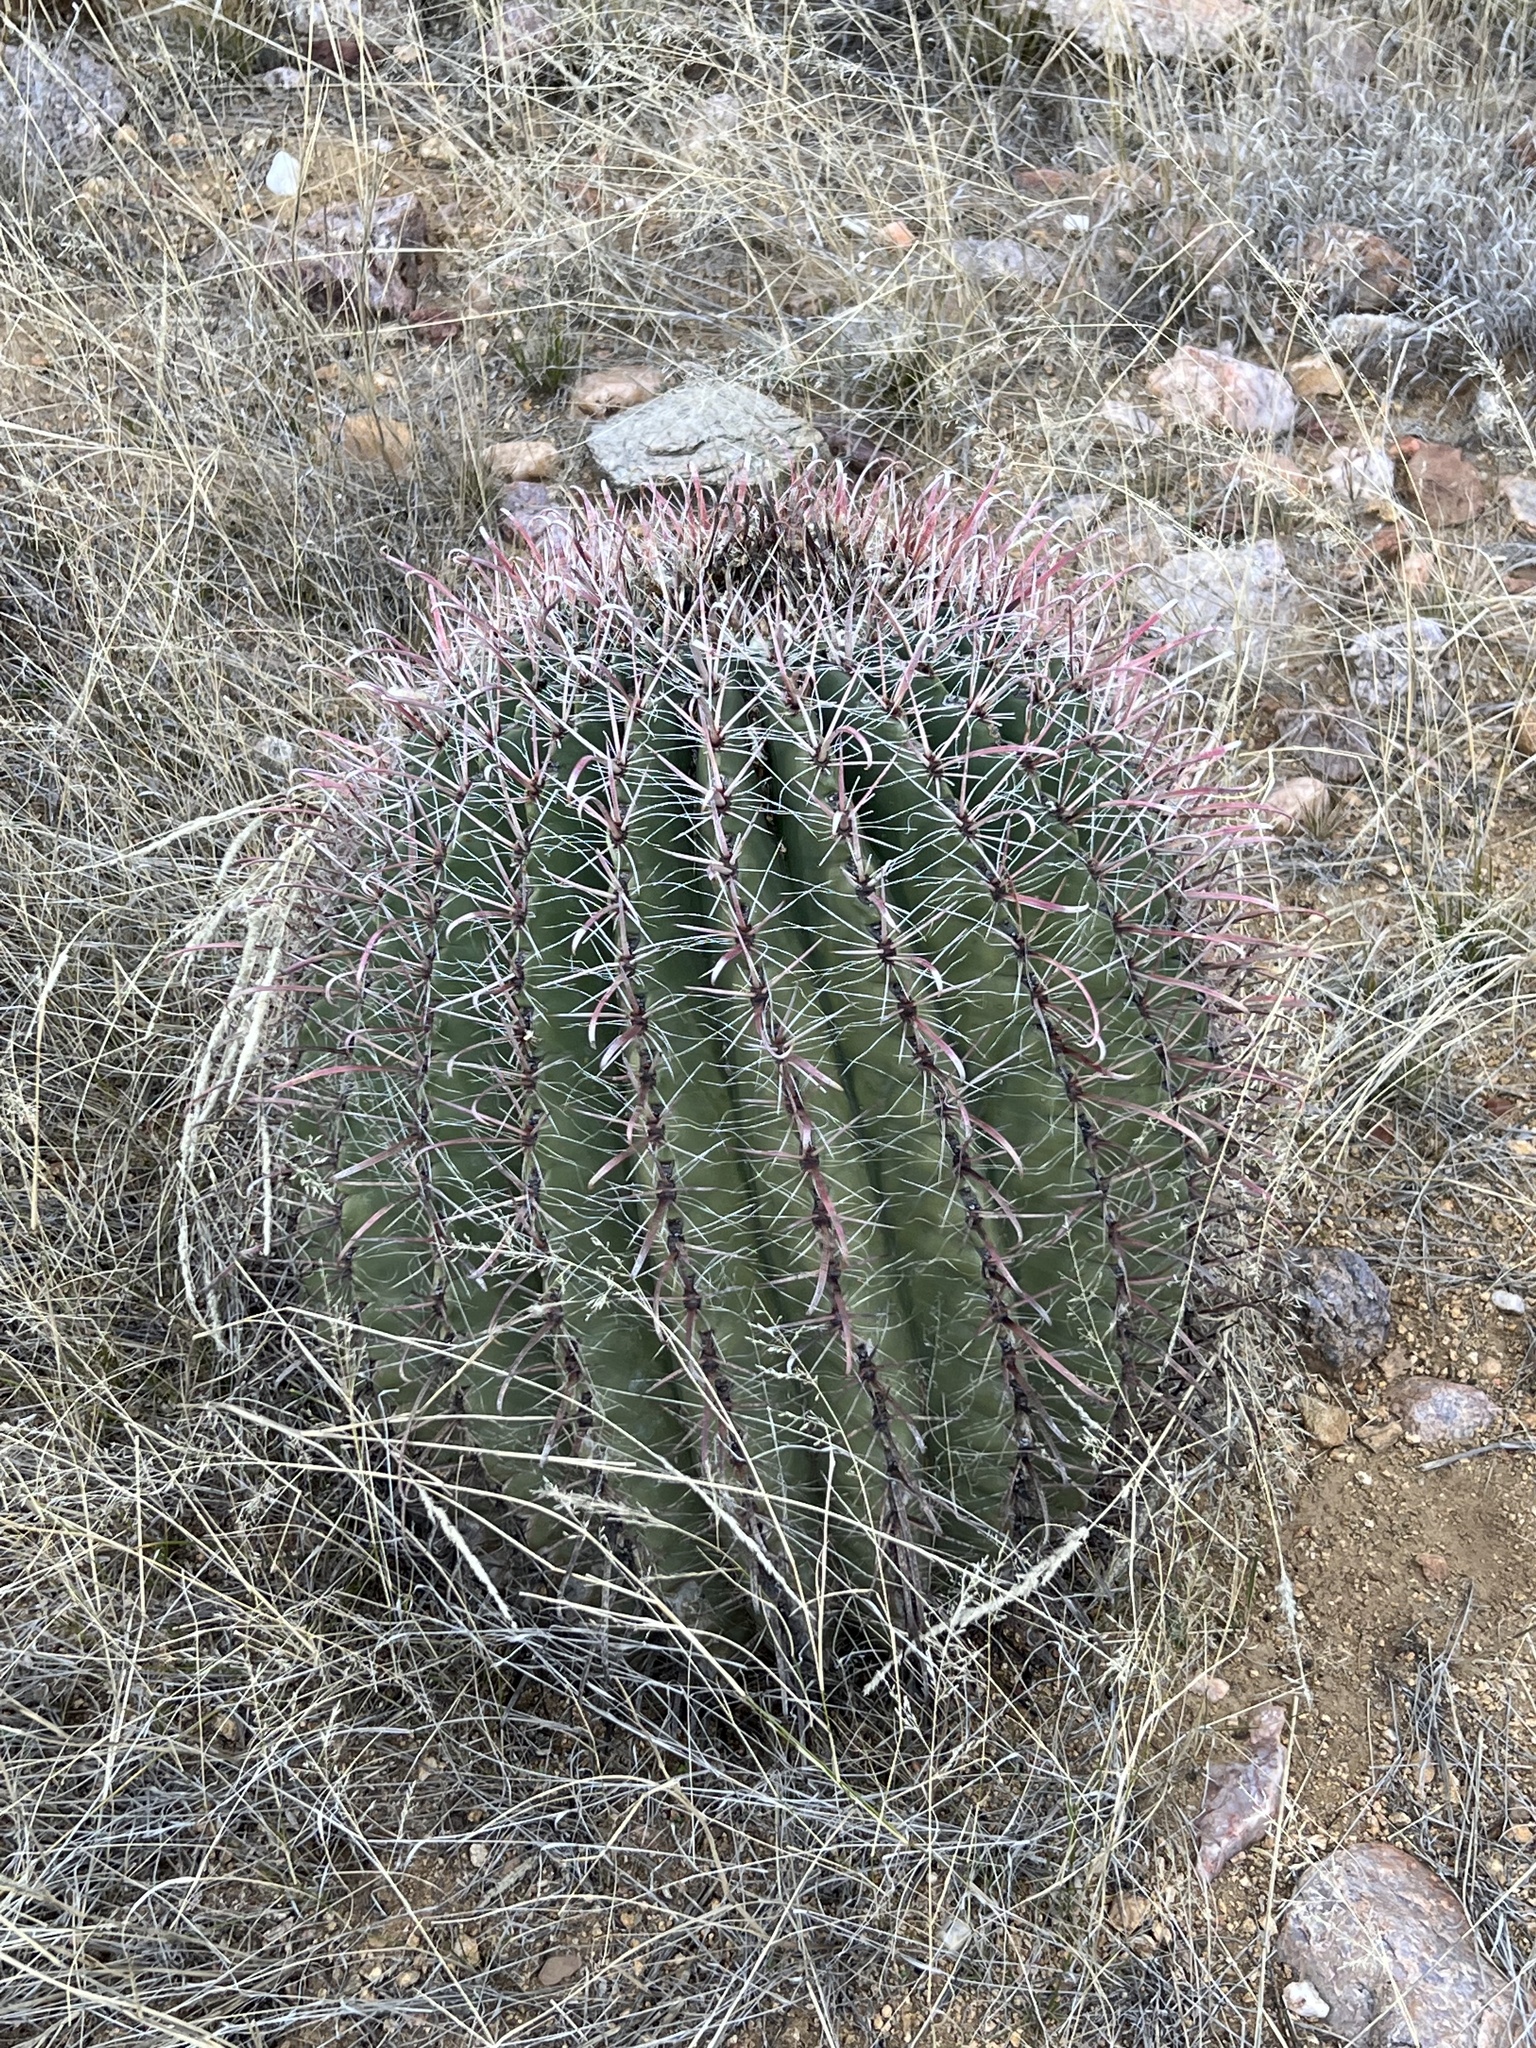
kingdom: Plantae
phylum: Tracheophyta
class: Magnoliopsida
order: Caryophyllales
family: Cactaceae
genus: Ferocactus
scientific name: Ferocactus wislizeni
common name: Candy barrel cactus
